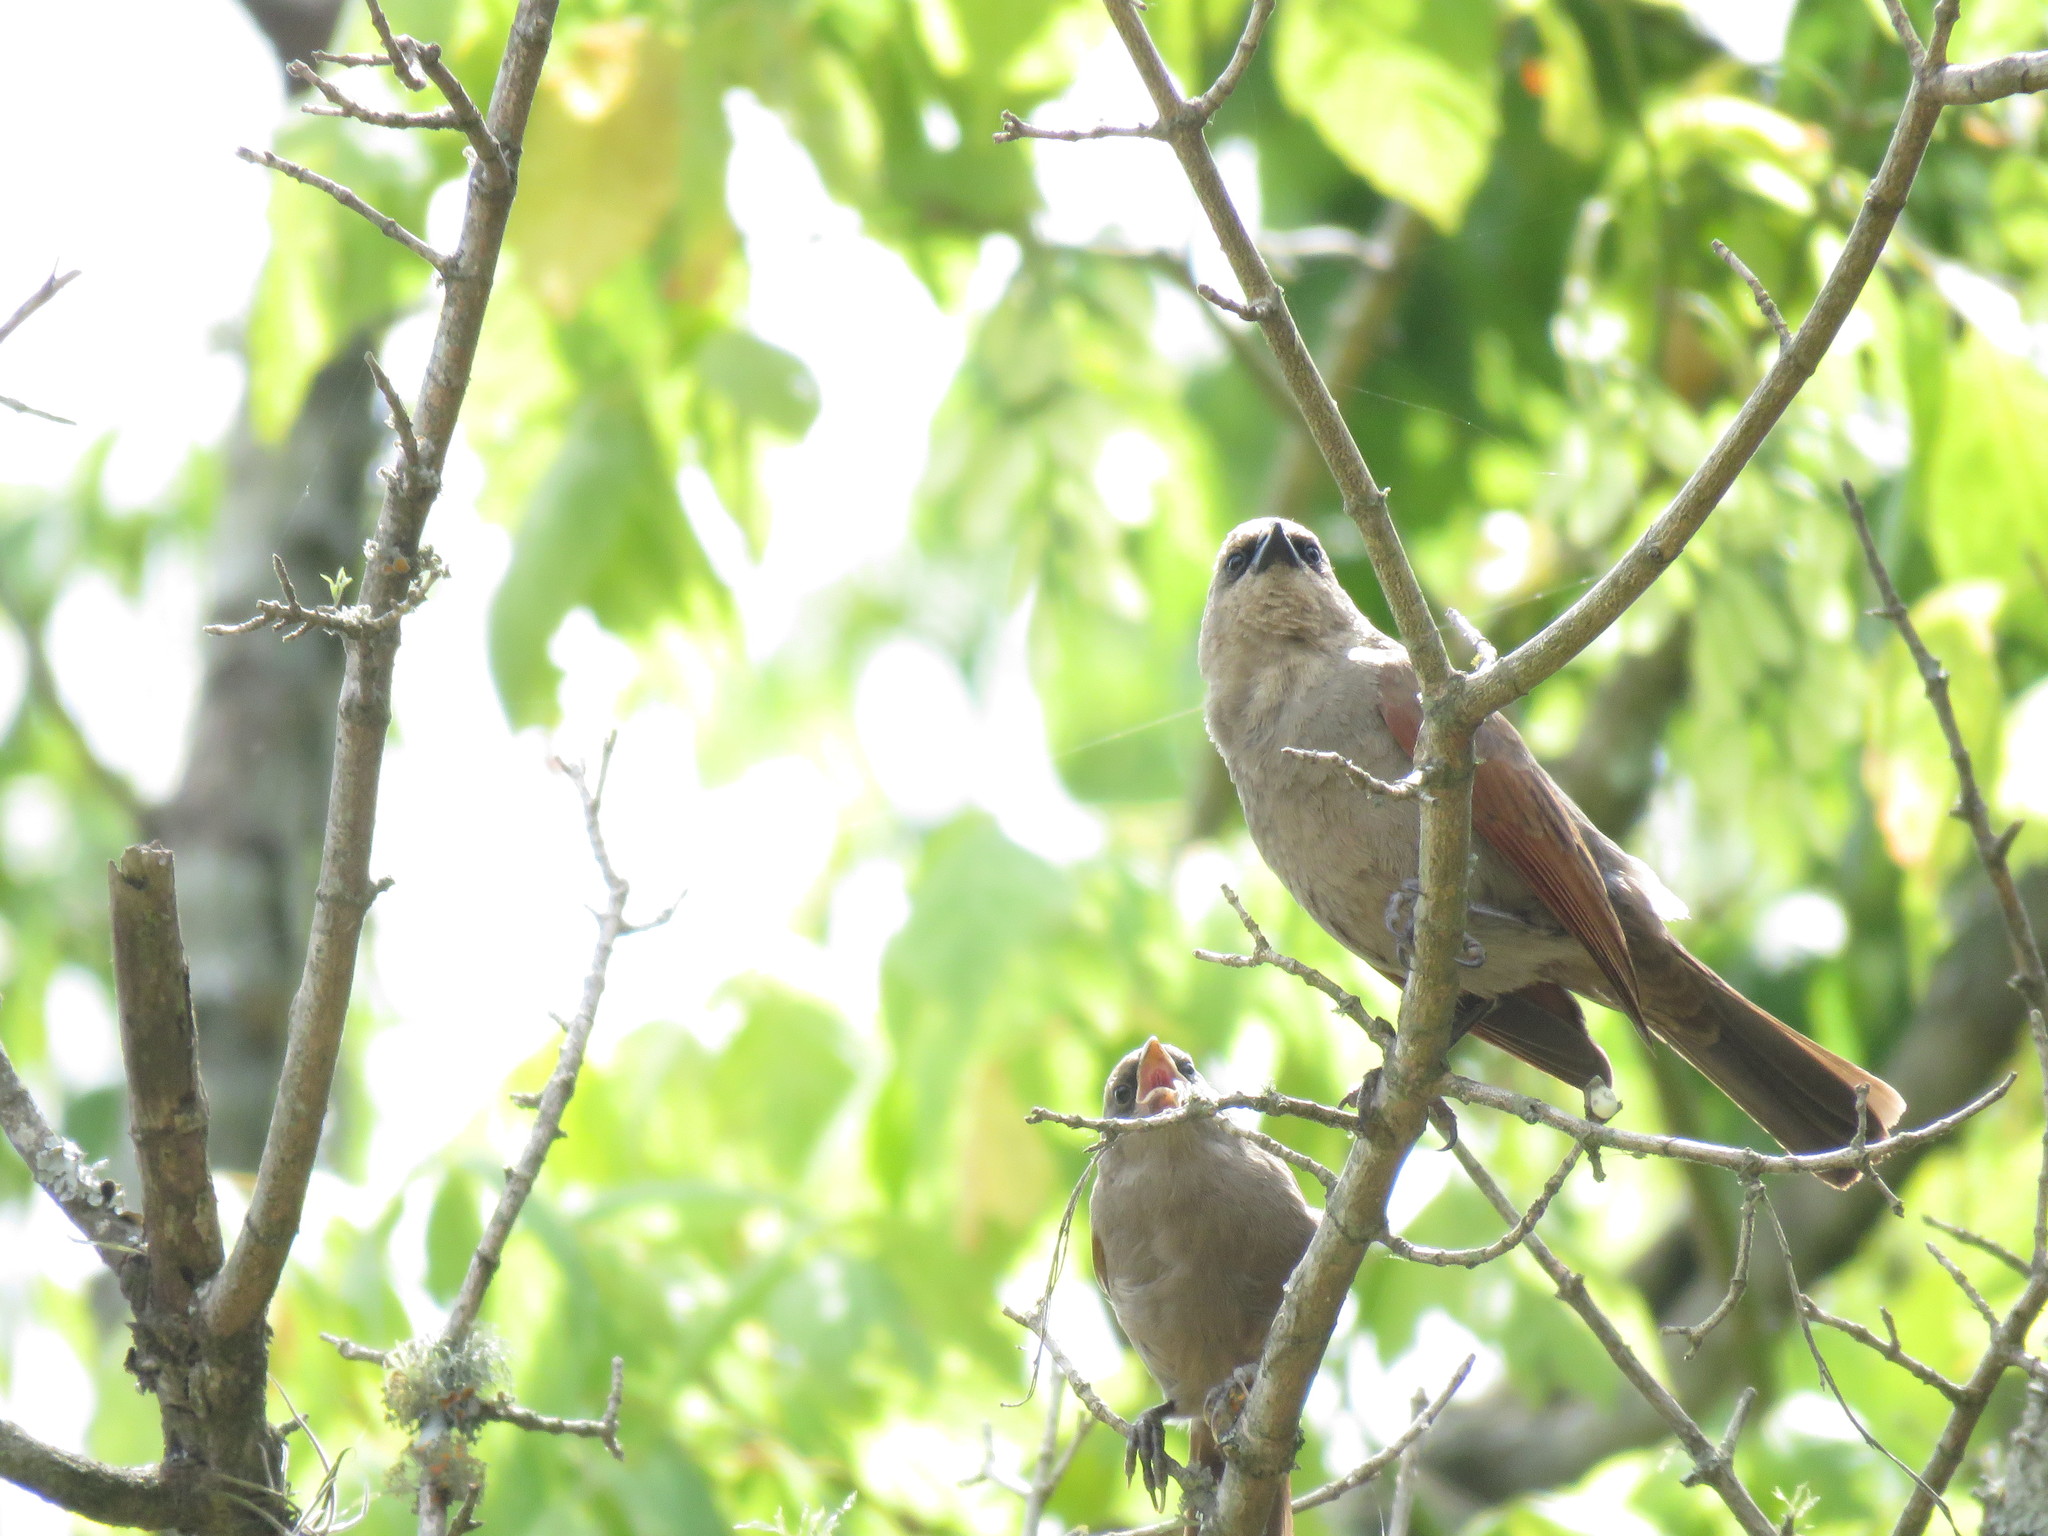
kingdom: Animalia
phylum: Chordata
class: Aves
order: Passeriformes
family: Icteridae
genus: Agelaioides
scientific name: Agelaioides badius
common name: Baywing
